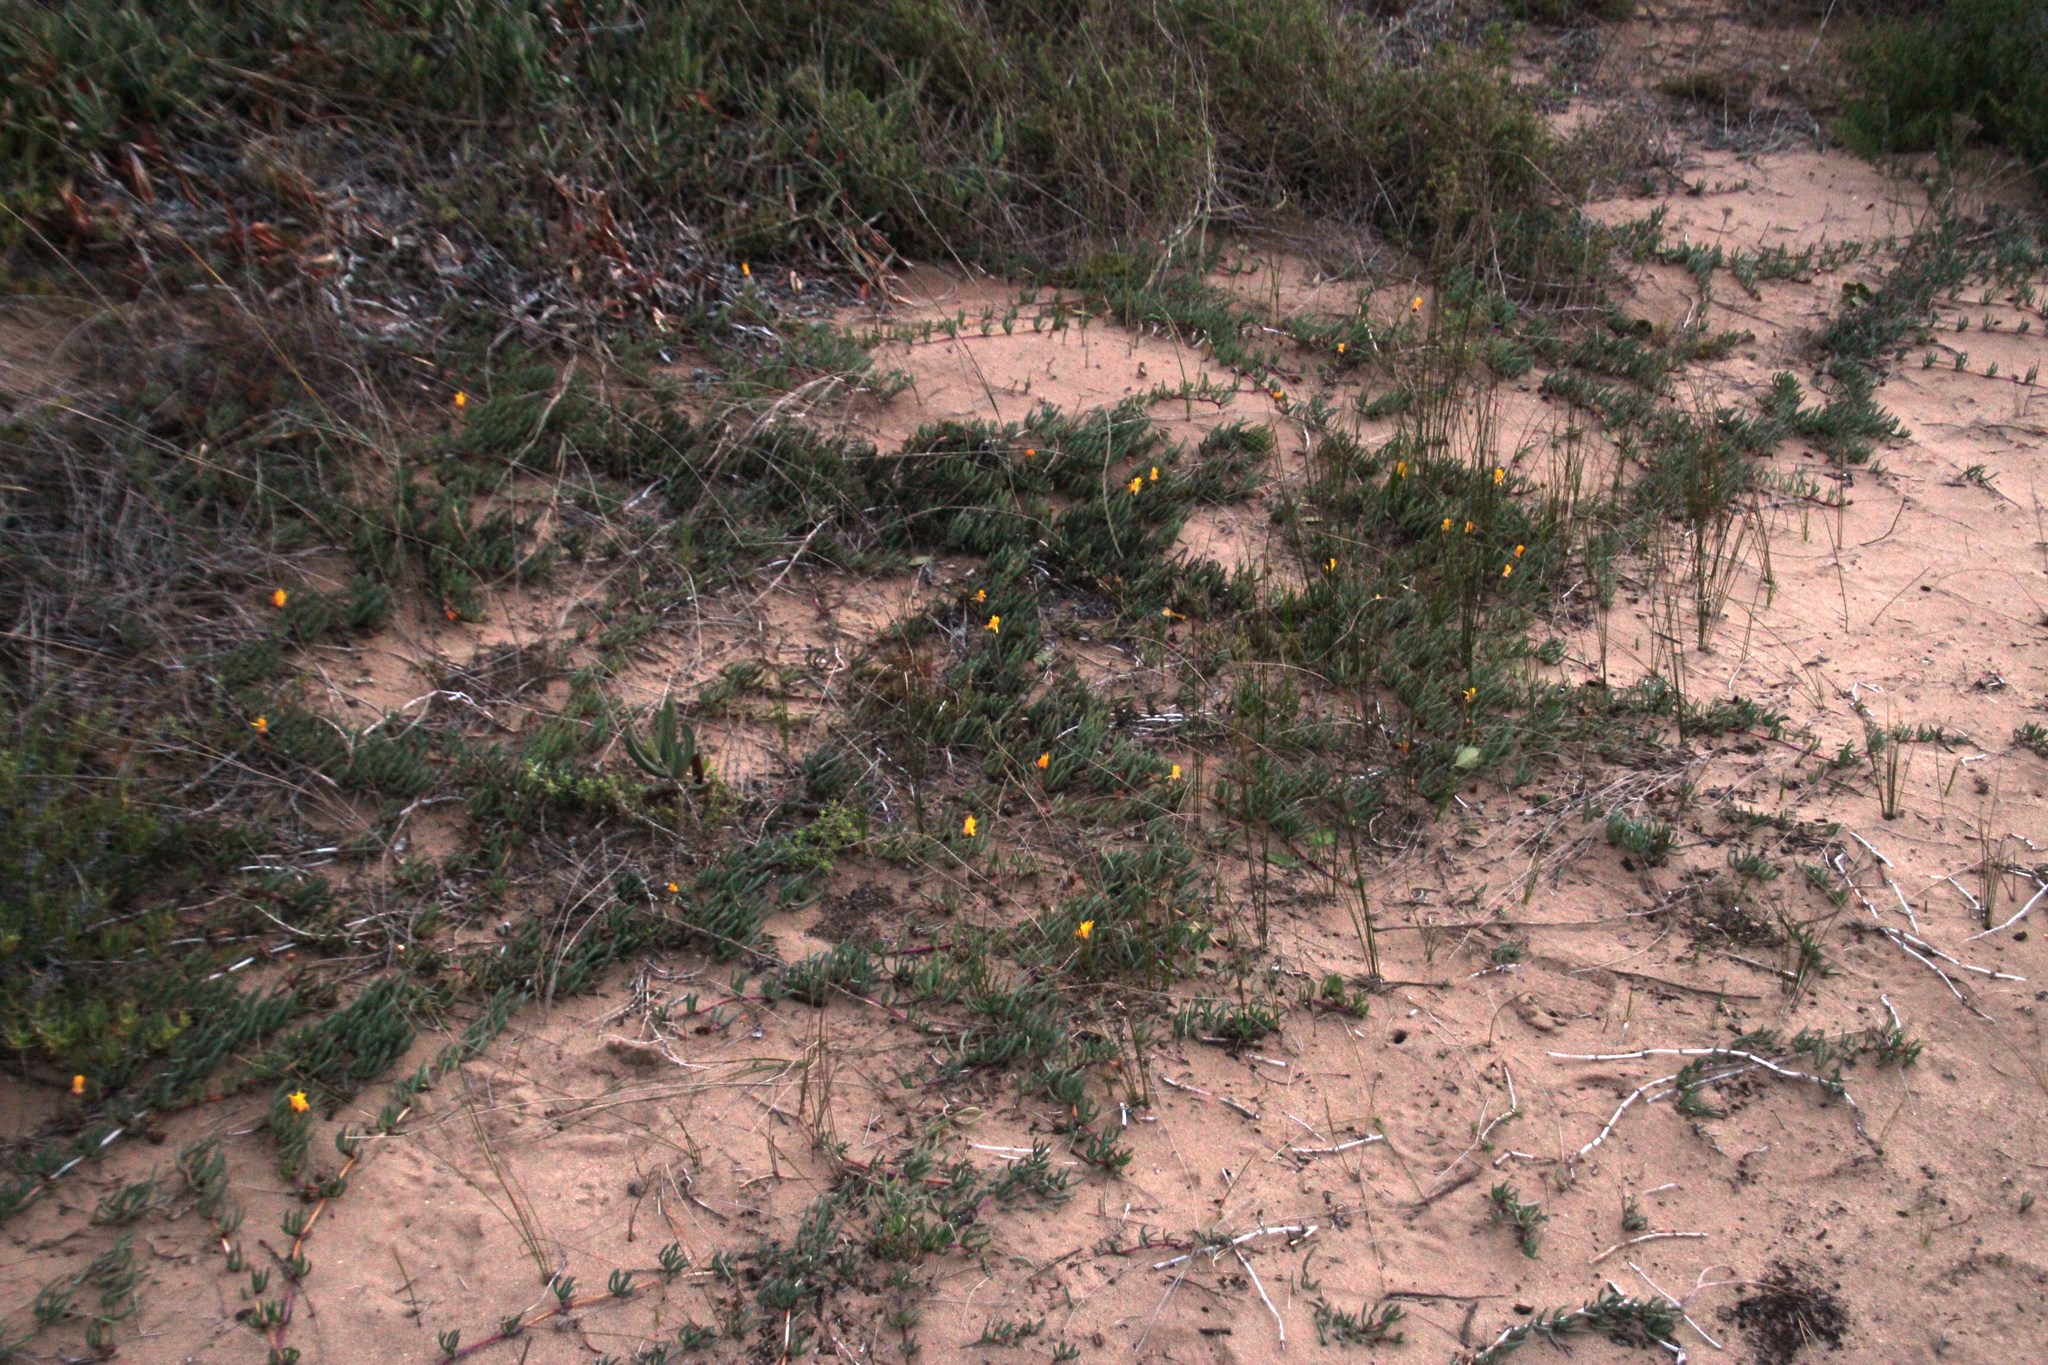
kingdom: Plantae
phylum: Tracheophyta
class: Magnoliopsida
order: Caryophyllales
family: Aizoaceae
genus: Jordaaniella
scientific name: Jordaaniella dubia
